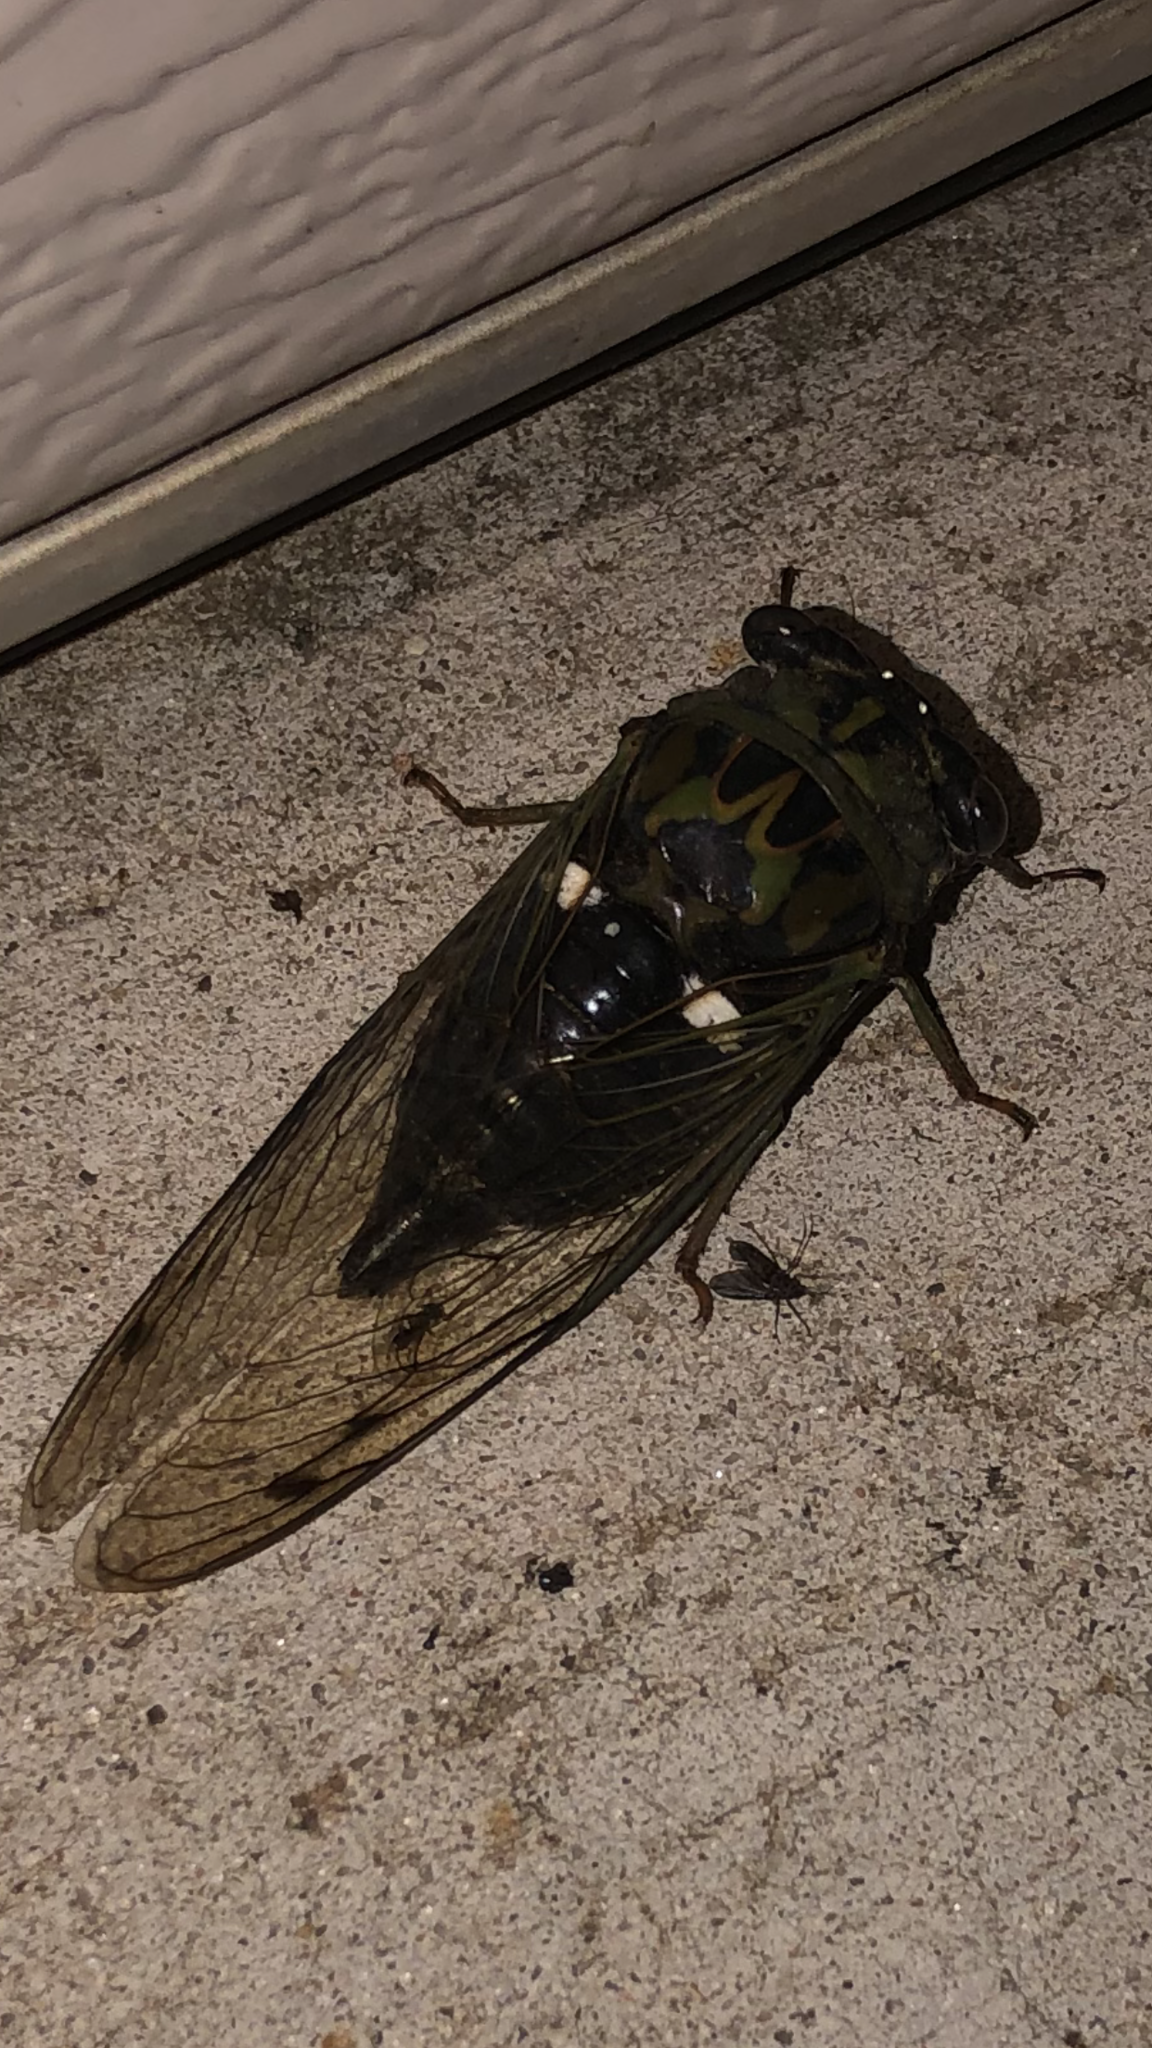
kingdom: Animalia
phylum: Arthropoda
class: Insecta
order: Hemiptera
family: Cicadidae
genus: Neotibicen
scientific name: Neotibicen pruinosus
